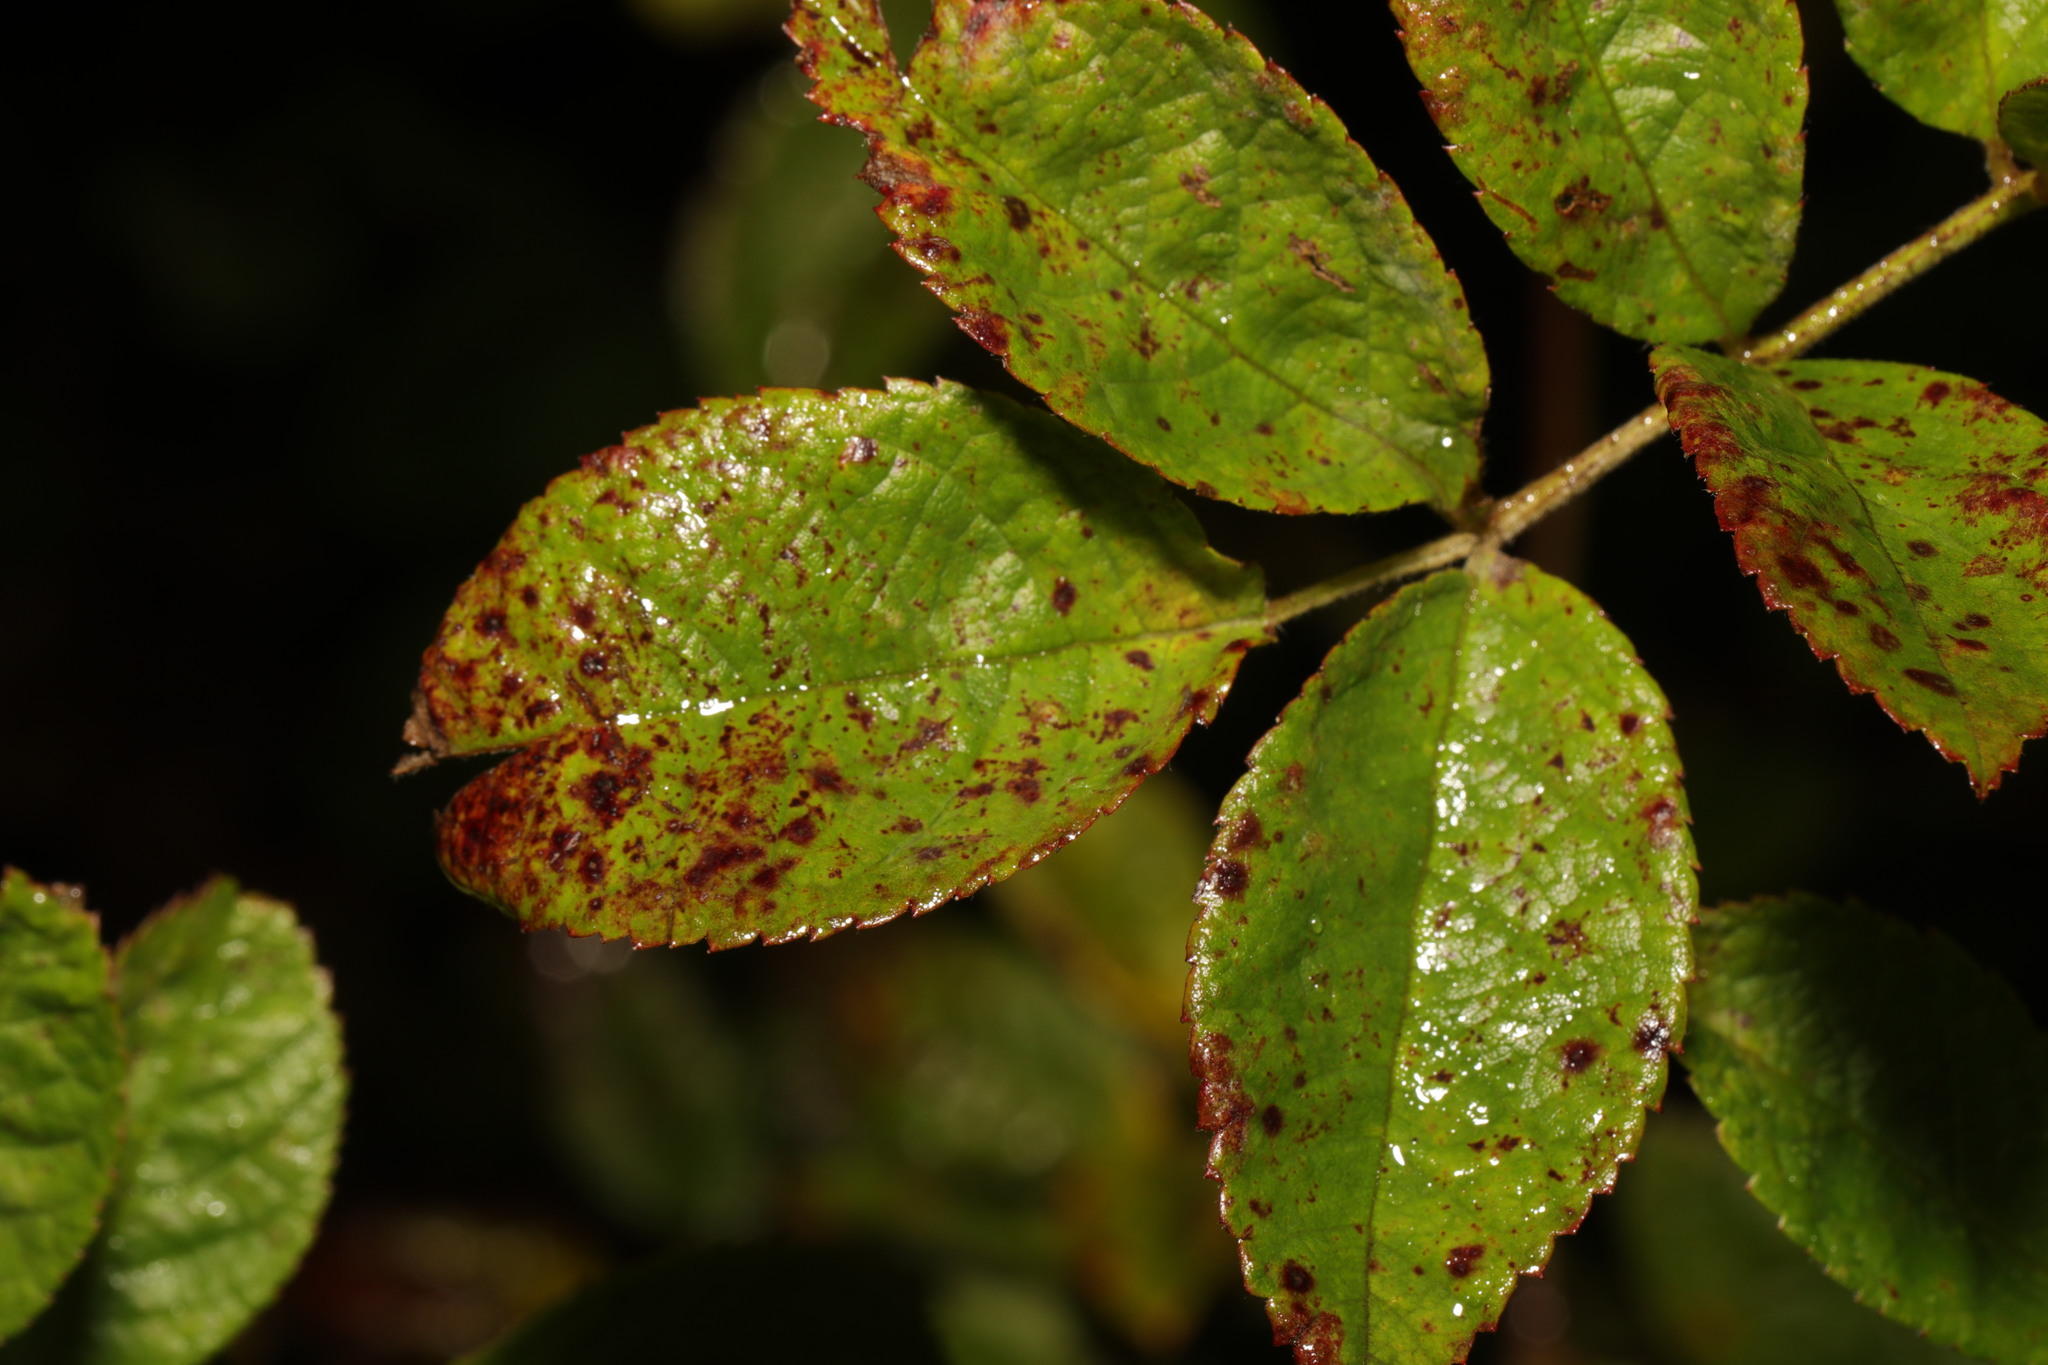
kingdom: Fungi
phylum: Ascomycota
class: Leotiomycetes
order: Helotiales
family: Drepanopezizaceae
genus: Diplocarpon
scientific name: Diplocarpon rosae
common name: Rose black-spot
